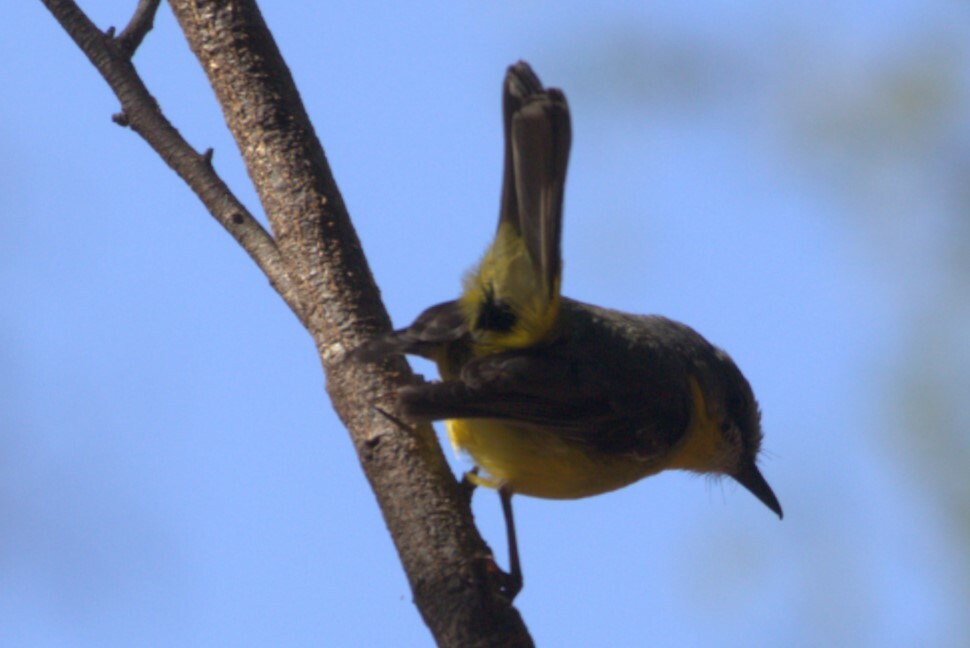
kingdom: Animalia
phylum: Chordata
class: Aves
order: Passeriformes
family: Petroicidae
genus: Eopsaltria
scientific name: Eopsaltria australis
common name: Eastern yellow robin
